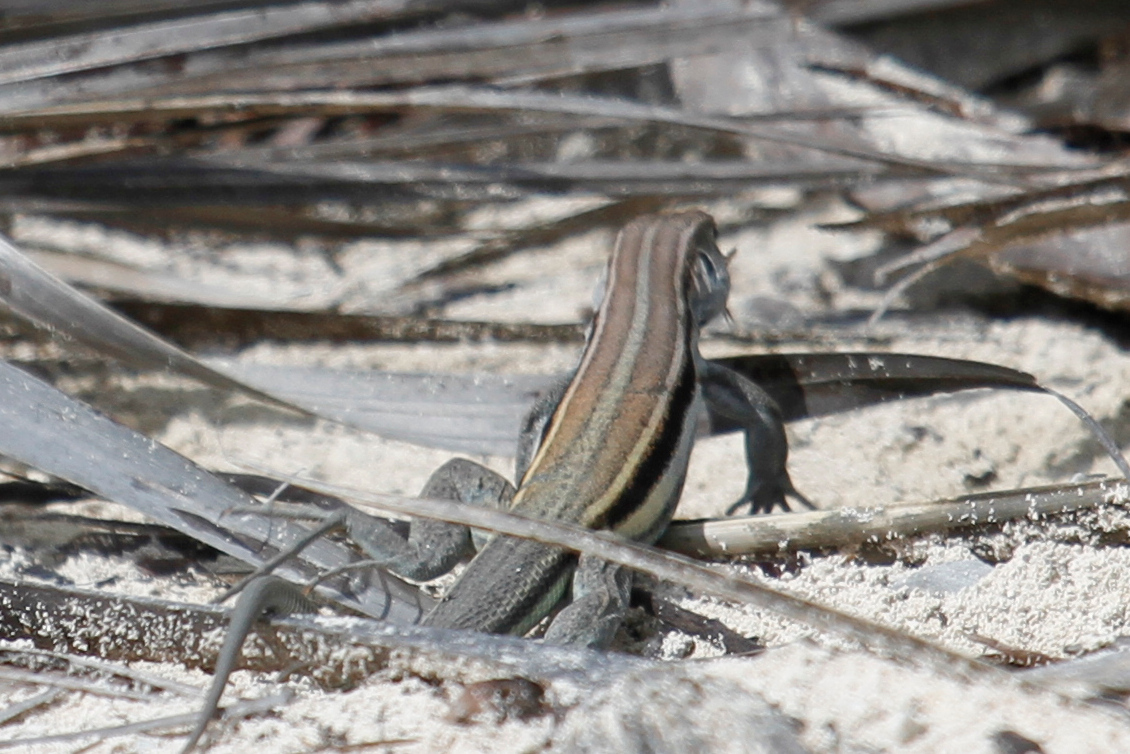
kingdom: Animalia
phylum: Chordata
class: Squamata
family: Teiidae
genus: Pholidoscelis
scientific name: Pholidoscelis auberi
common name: Auber's ameiva
